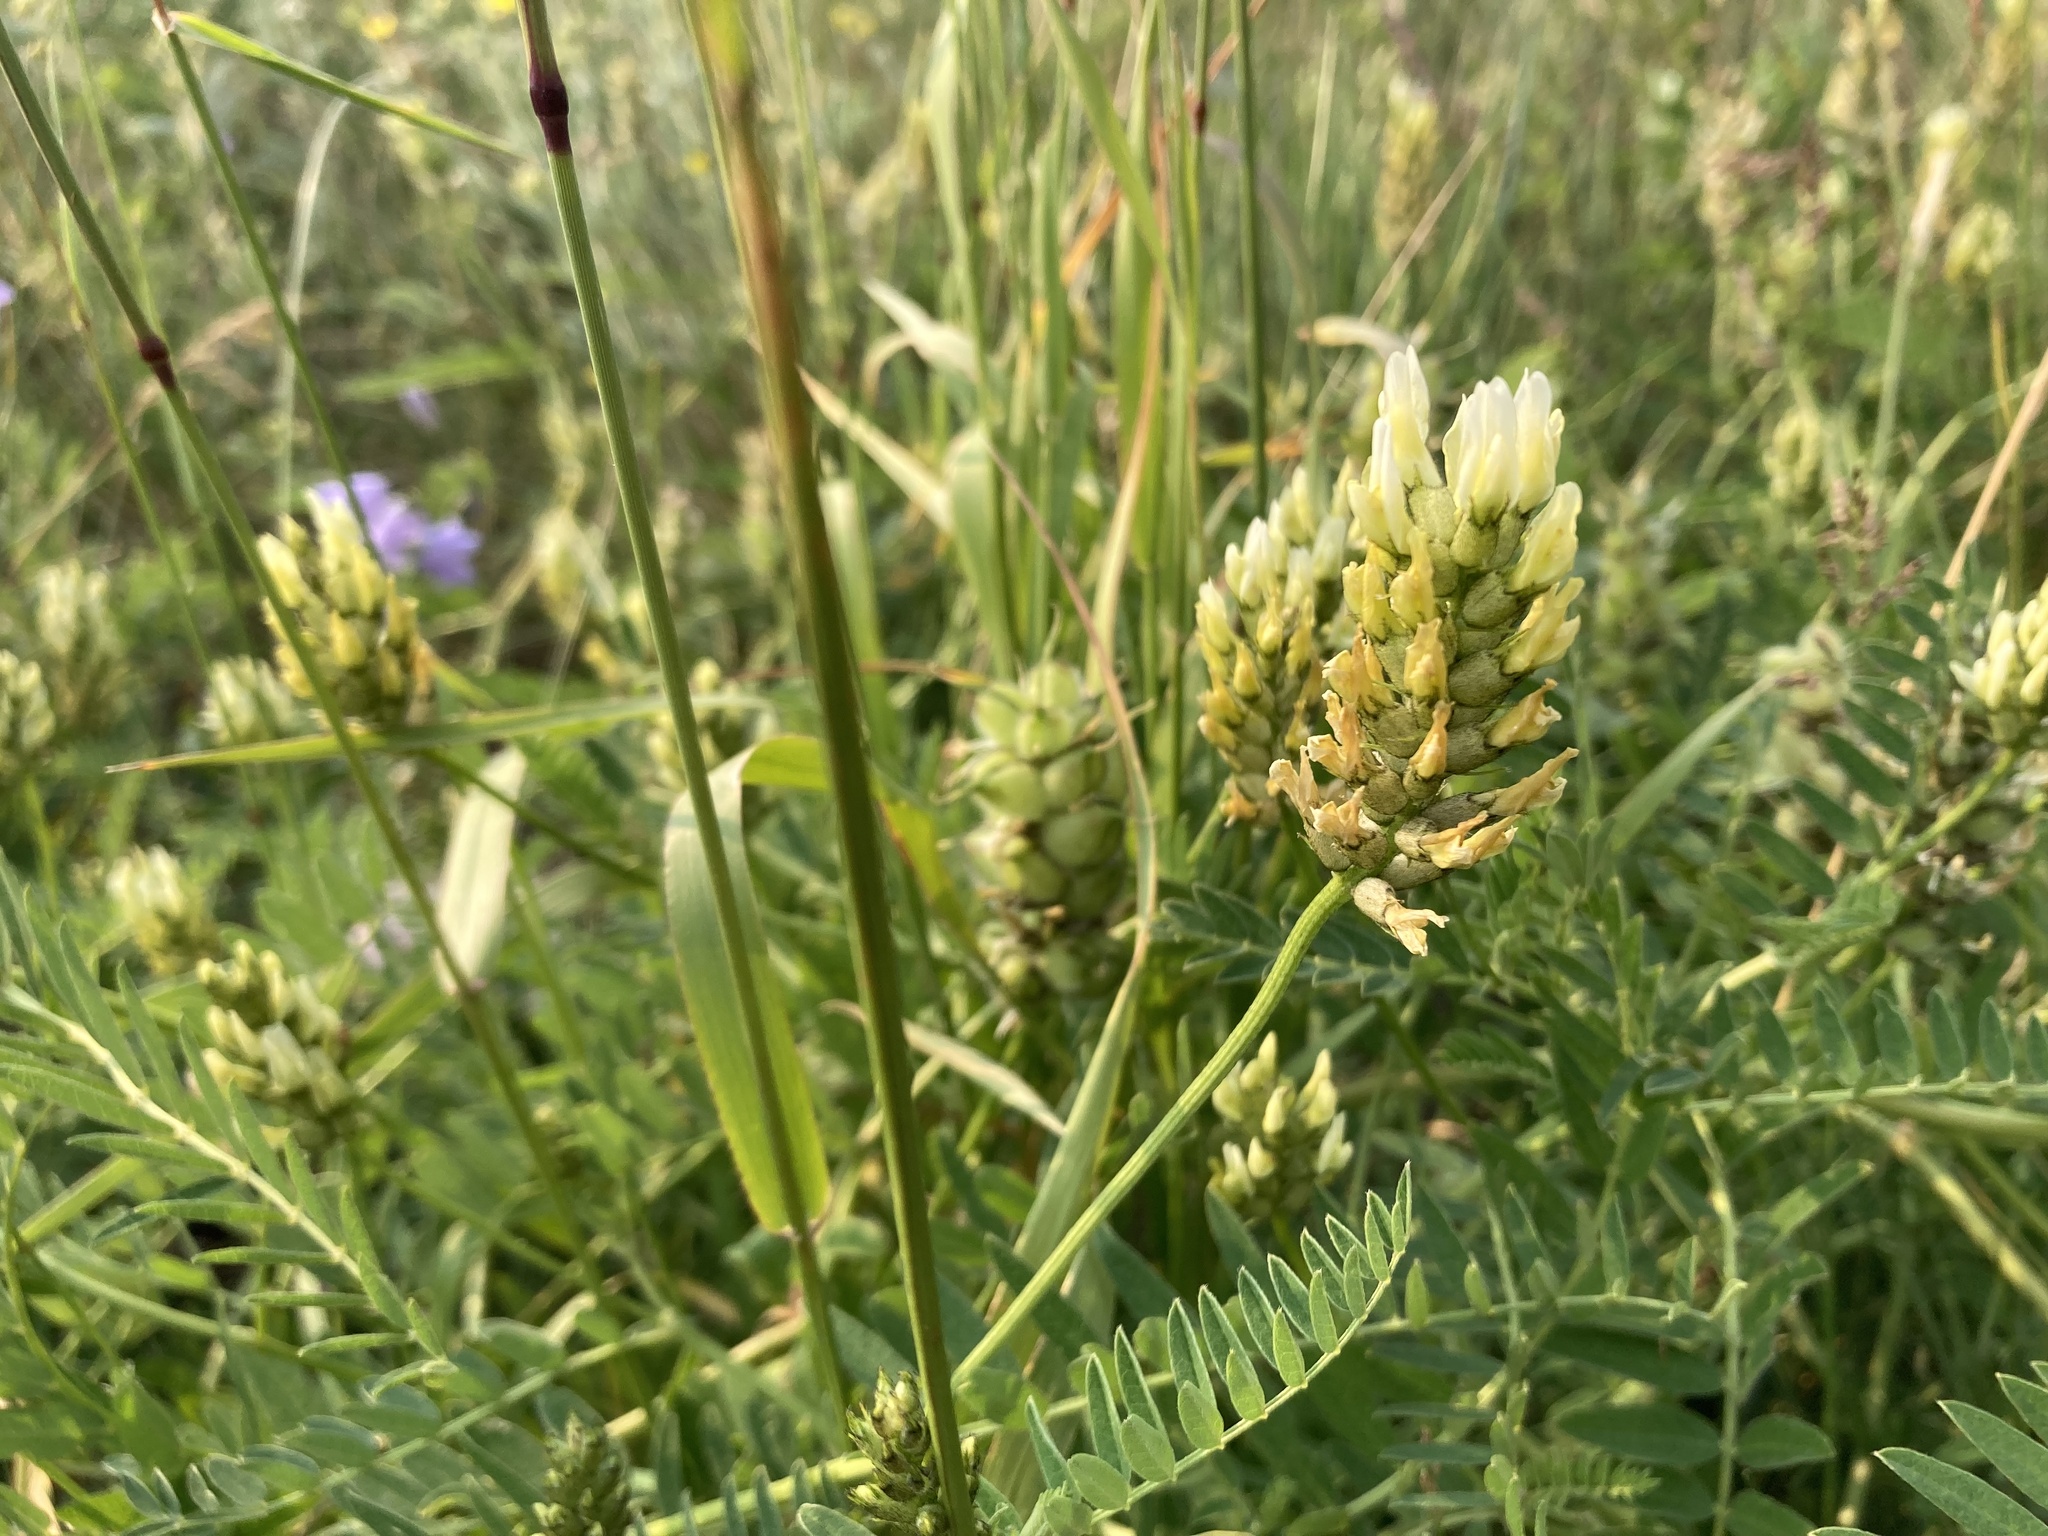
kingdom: Plantae
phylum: Tracheophyta
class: Magnoliopsida
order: Fabales
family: Fabaceae
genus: Astragalus
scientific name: Astragalus cicer
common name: Chick-pea milk-vetch
